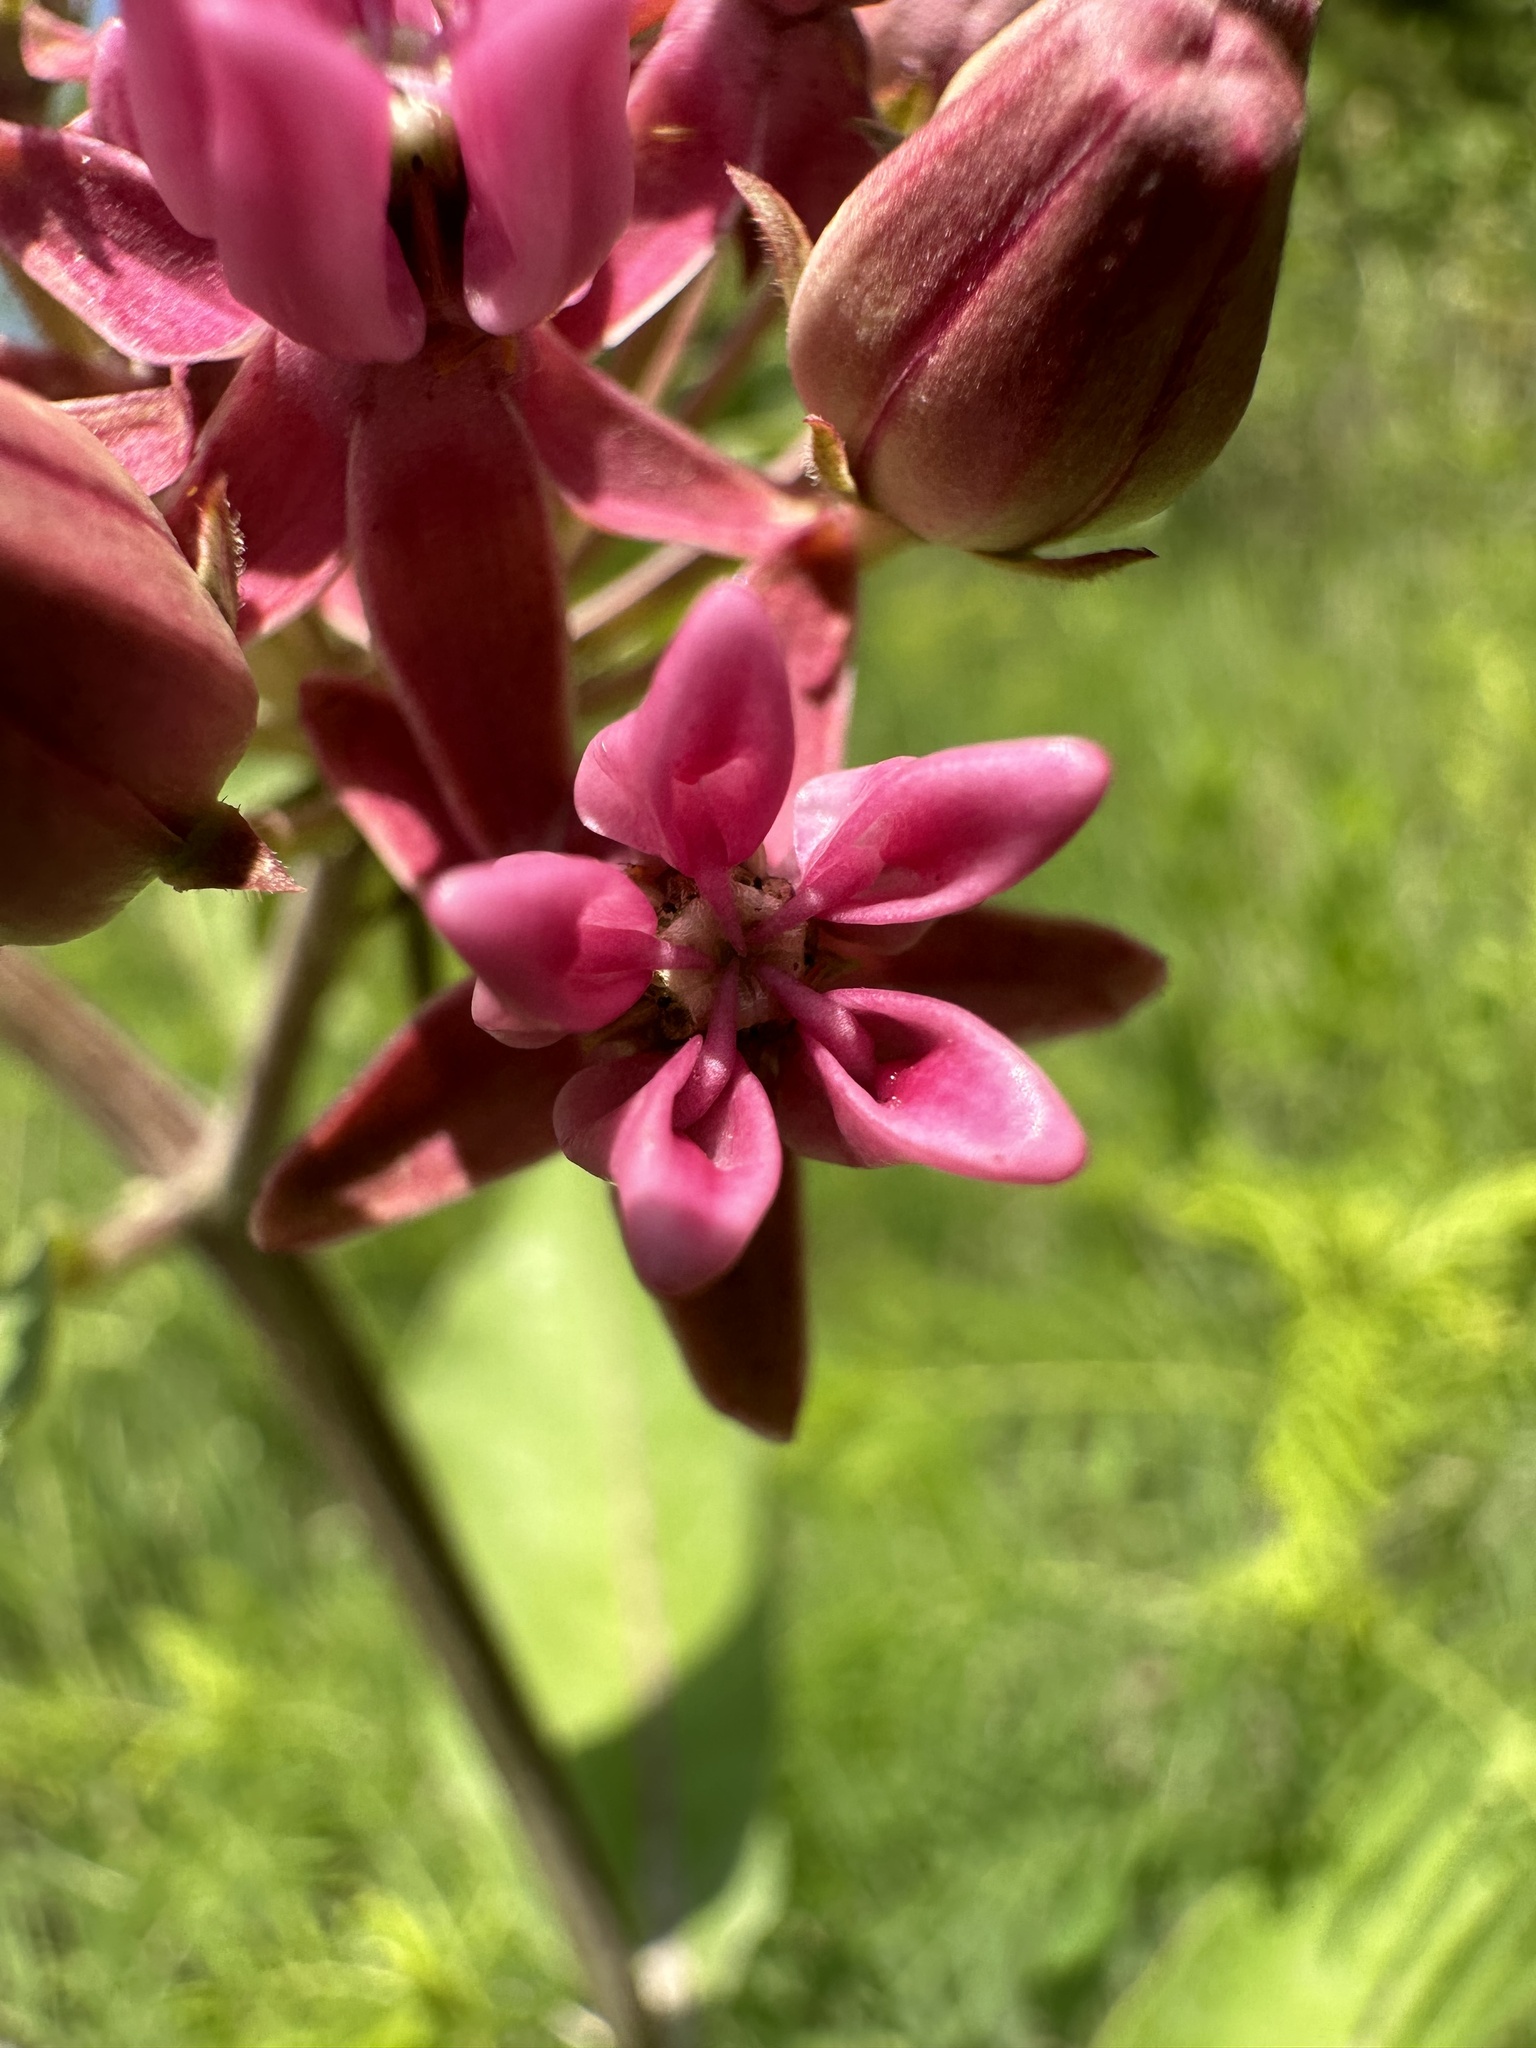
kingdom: Plantae
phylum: Tracheophyta
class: Magnoliopsida
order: Gentianales
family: Apocynaceae
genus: Asclepias
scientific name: Asclepias purpurascens
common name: Purple milkweed
